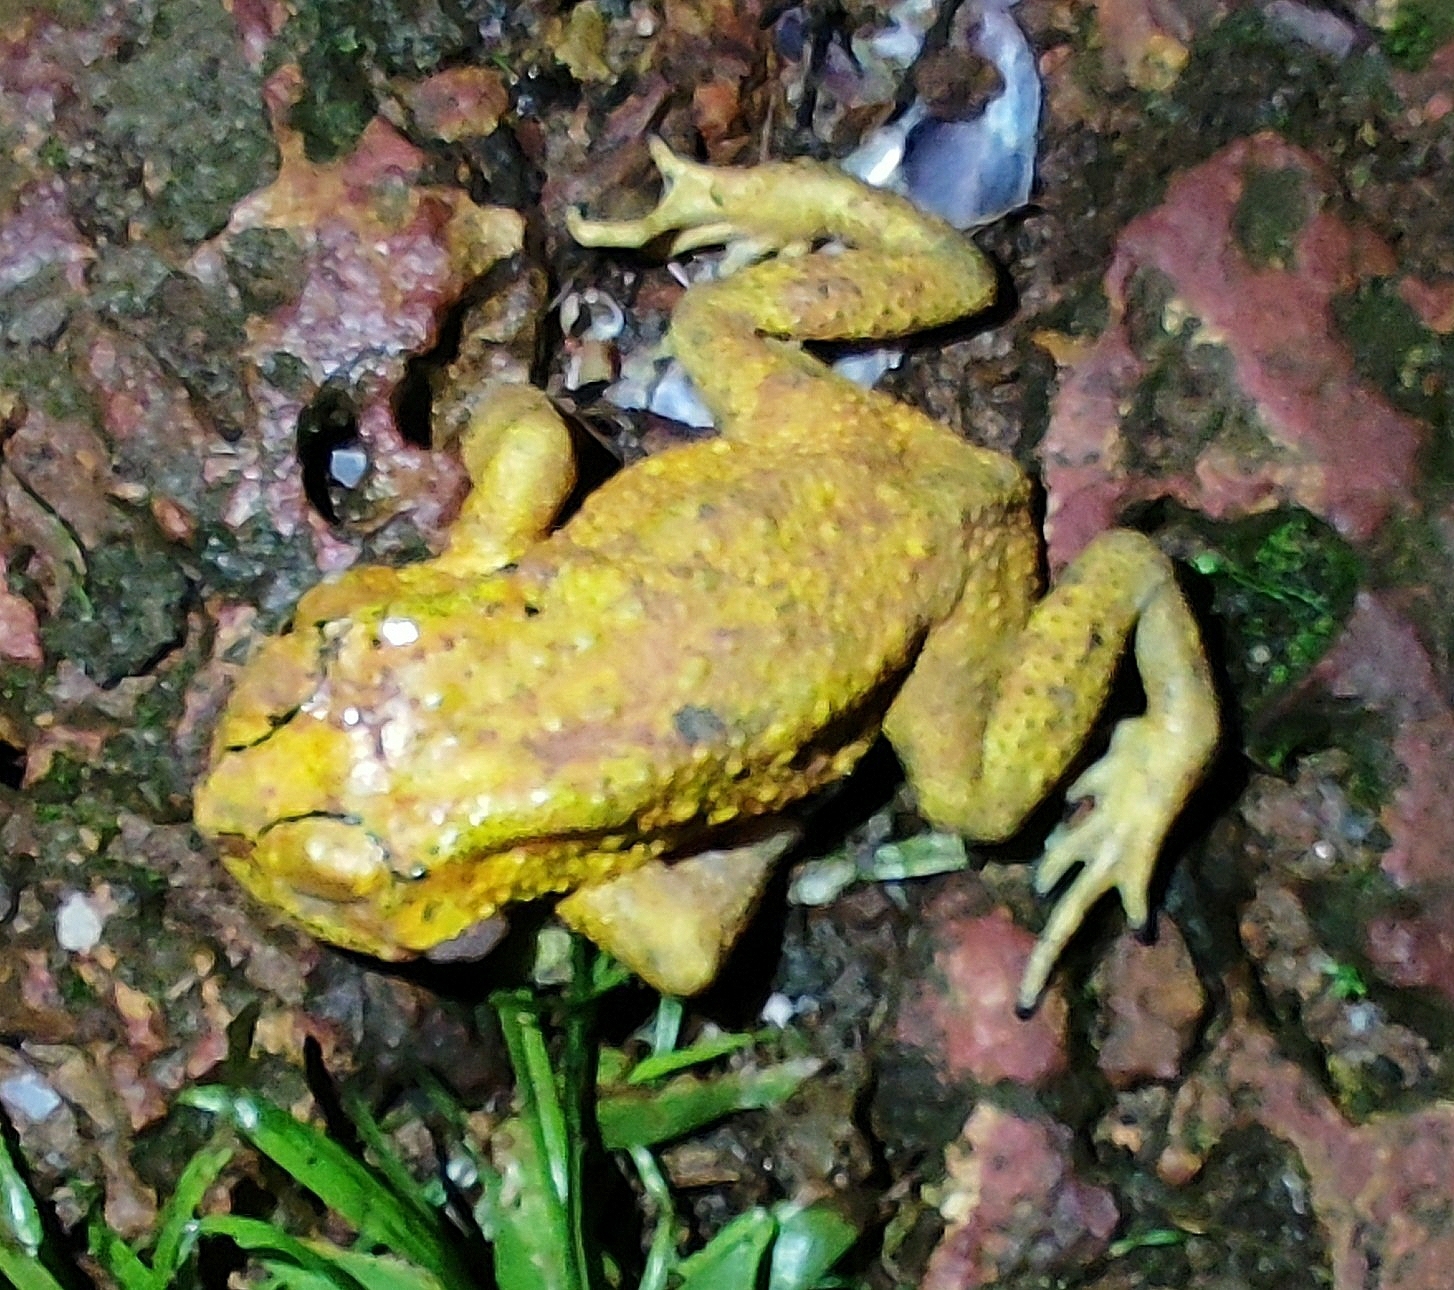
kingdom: Animalia
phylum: Chordata
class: Amphibia
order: Anura
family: Bufonidae
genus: Duttaphrynus
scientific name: Duttaphrynus melanostictus
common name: Common sunda toad
